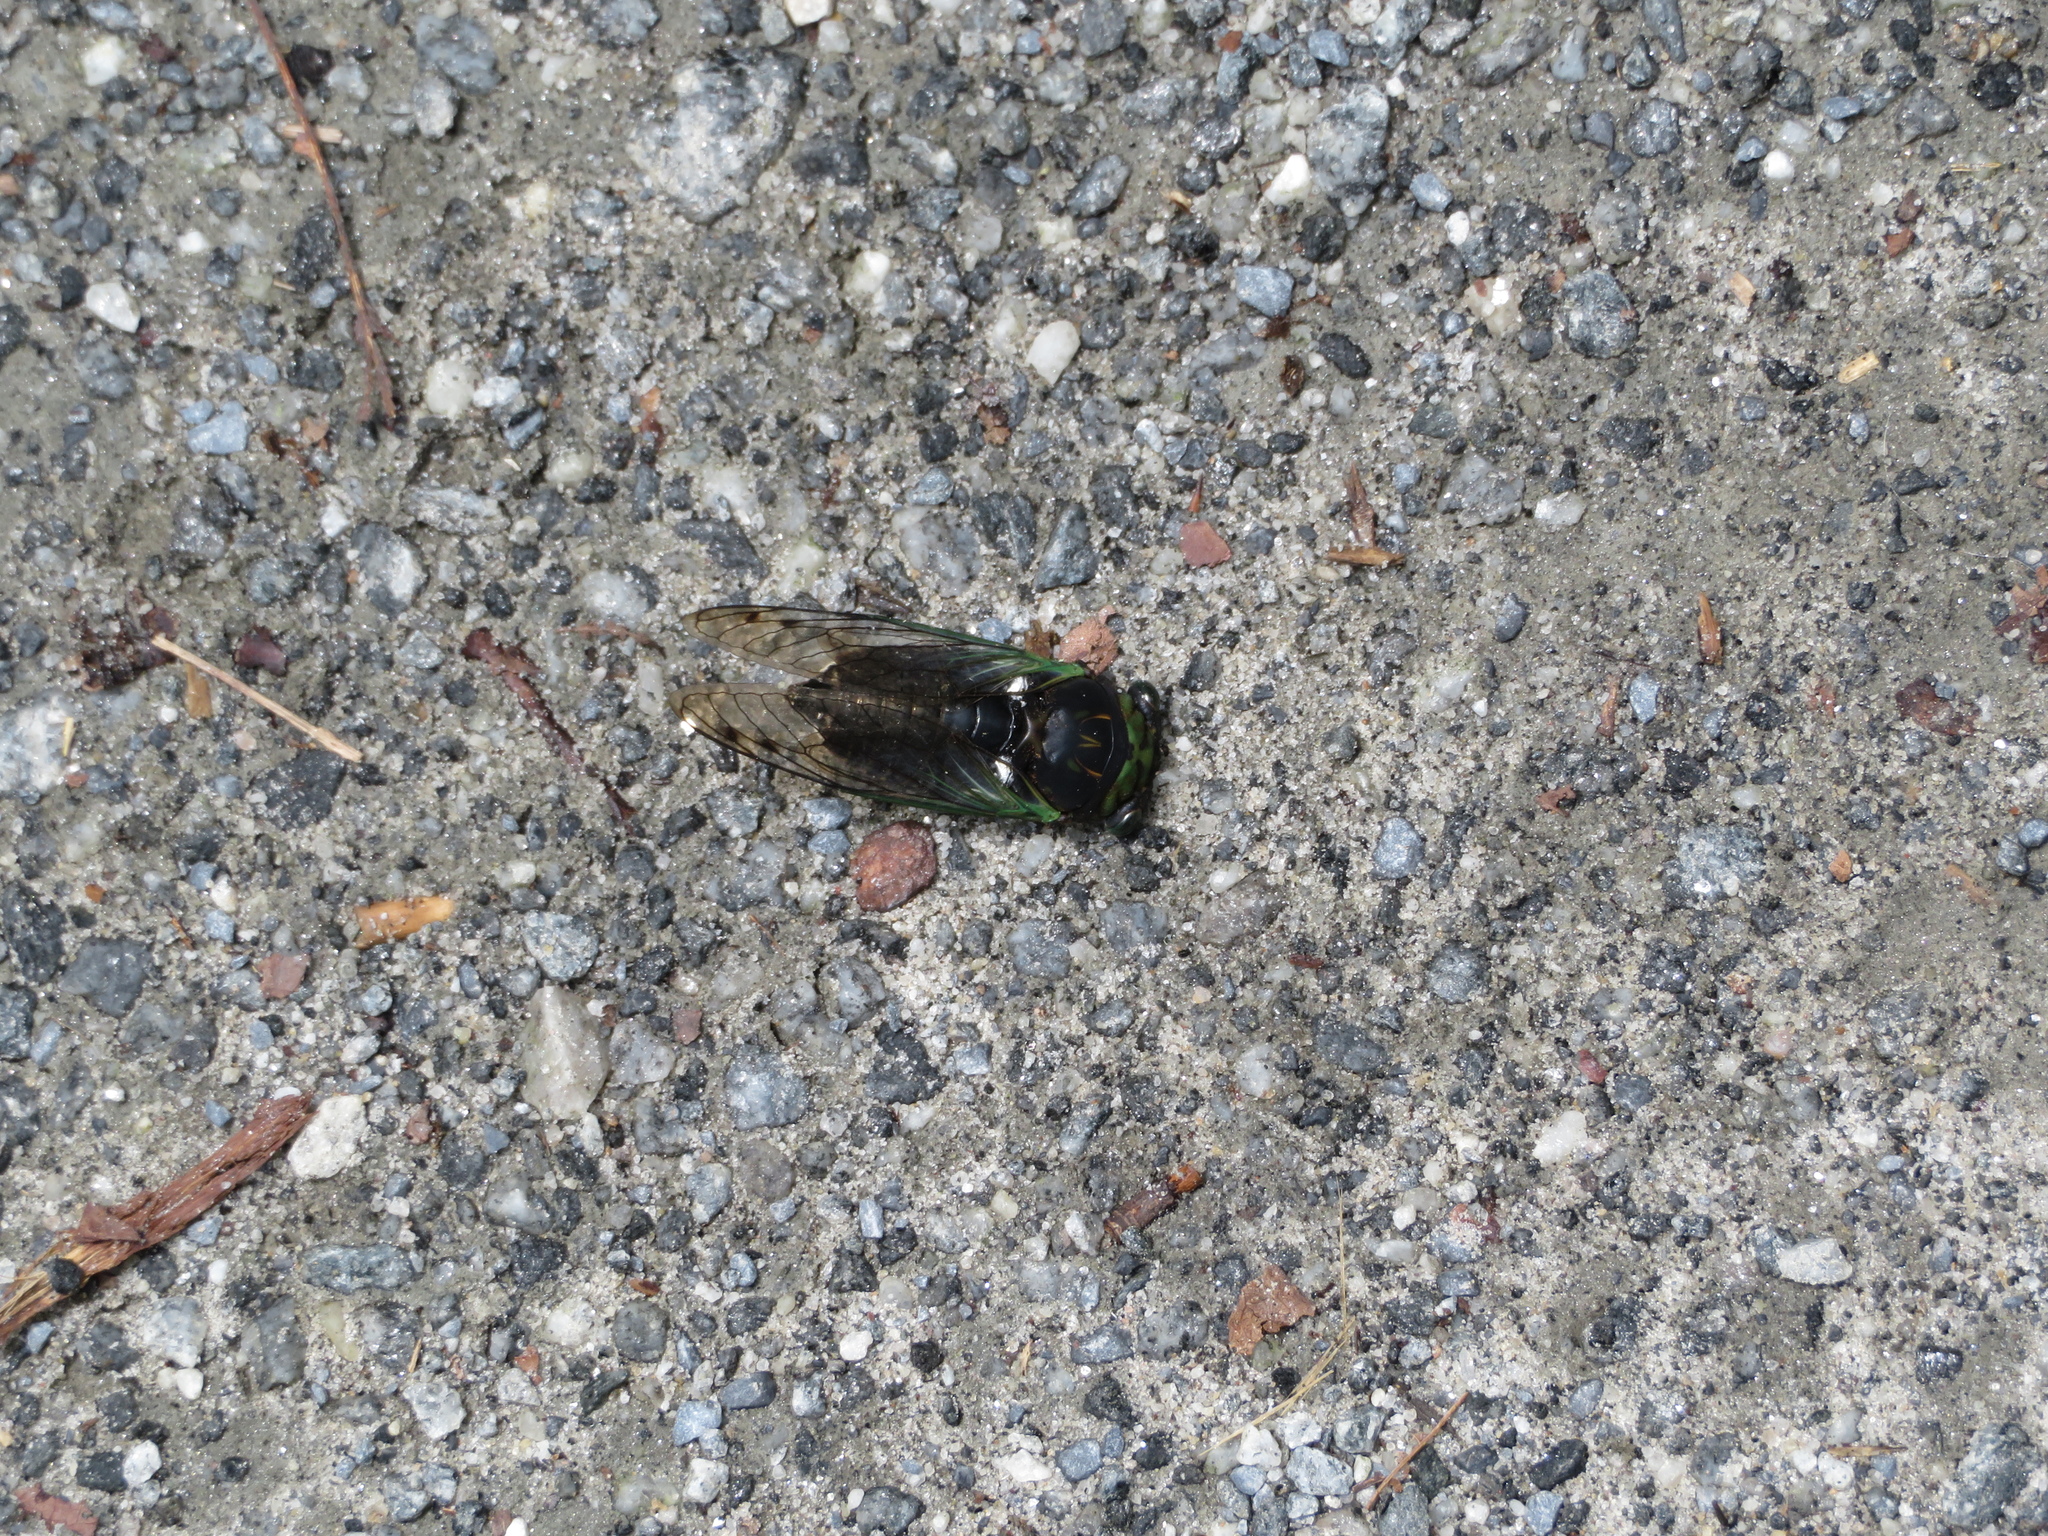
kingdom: Animalia
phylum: Arthropoda
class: Insecta
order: Hemiptera
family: Cicadidae
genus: Neotibicen
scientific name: Neotibicen tibicen
